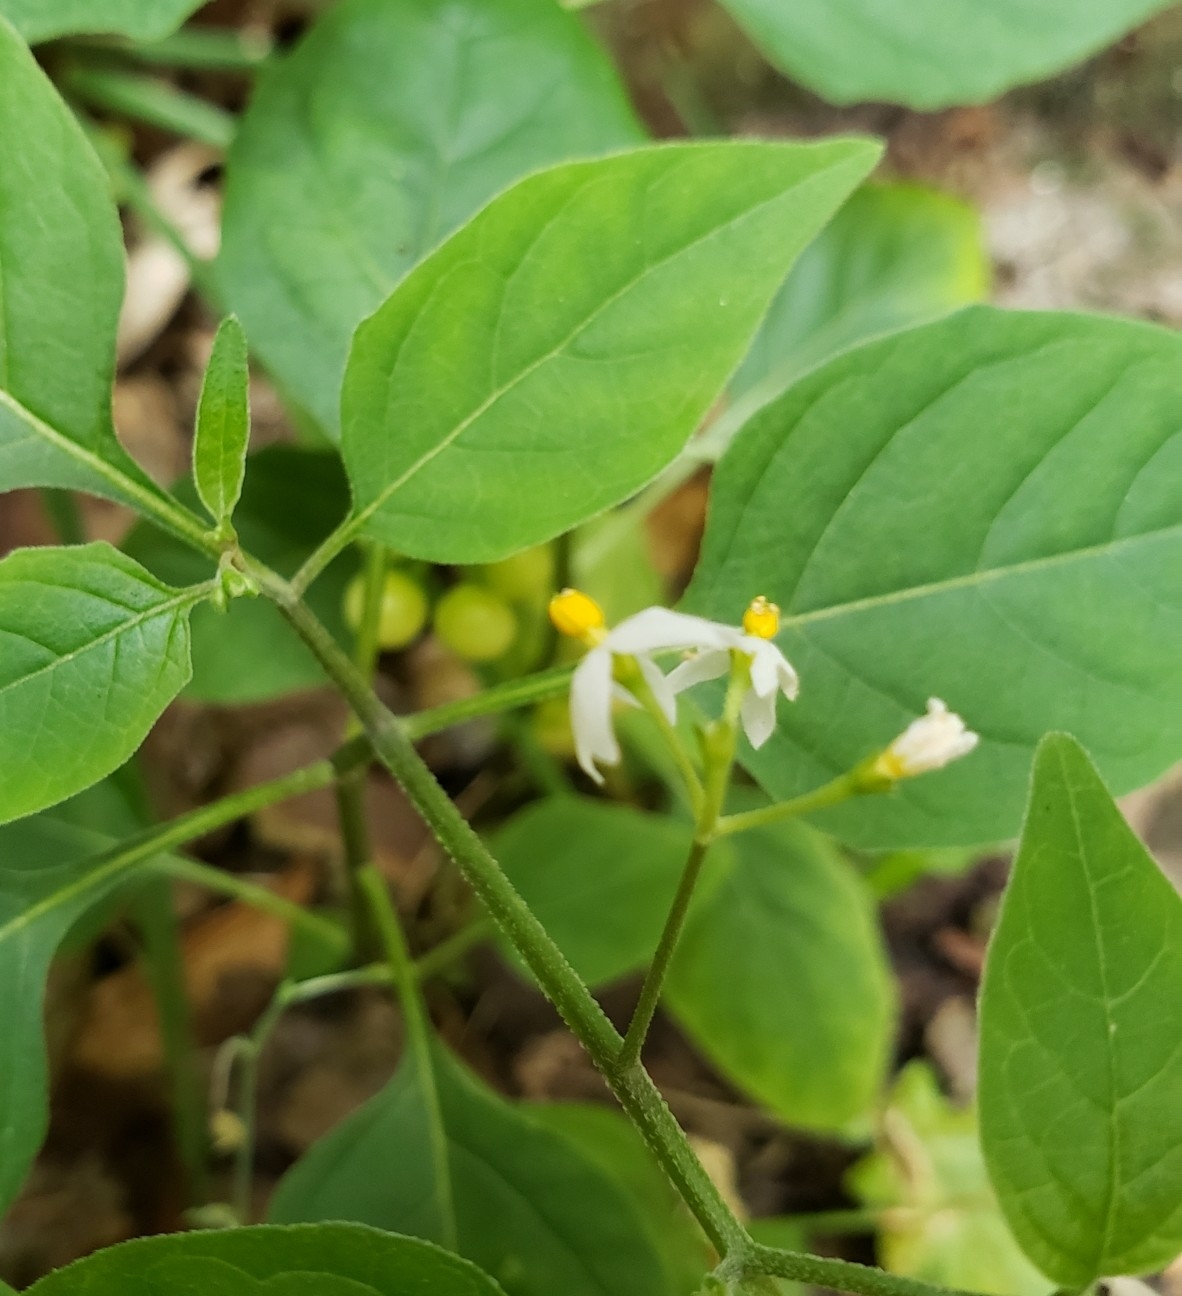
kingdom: Plantae
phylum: Tracheophyta
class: Magnoliopsida
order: Solanales
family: Solanaceae
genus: Solanum
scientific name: Solanum americanum
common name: American black nightshade
